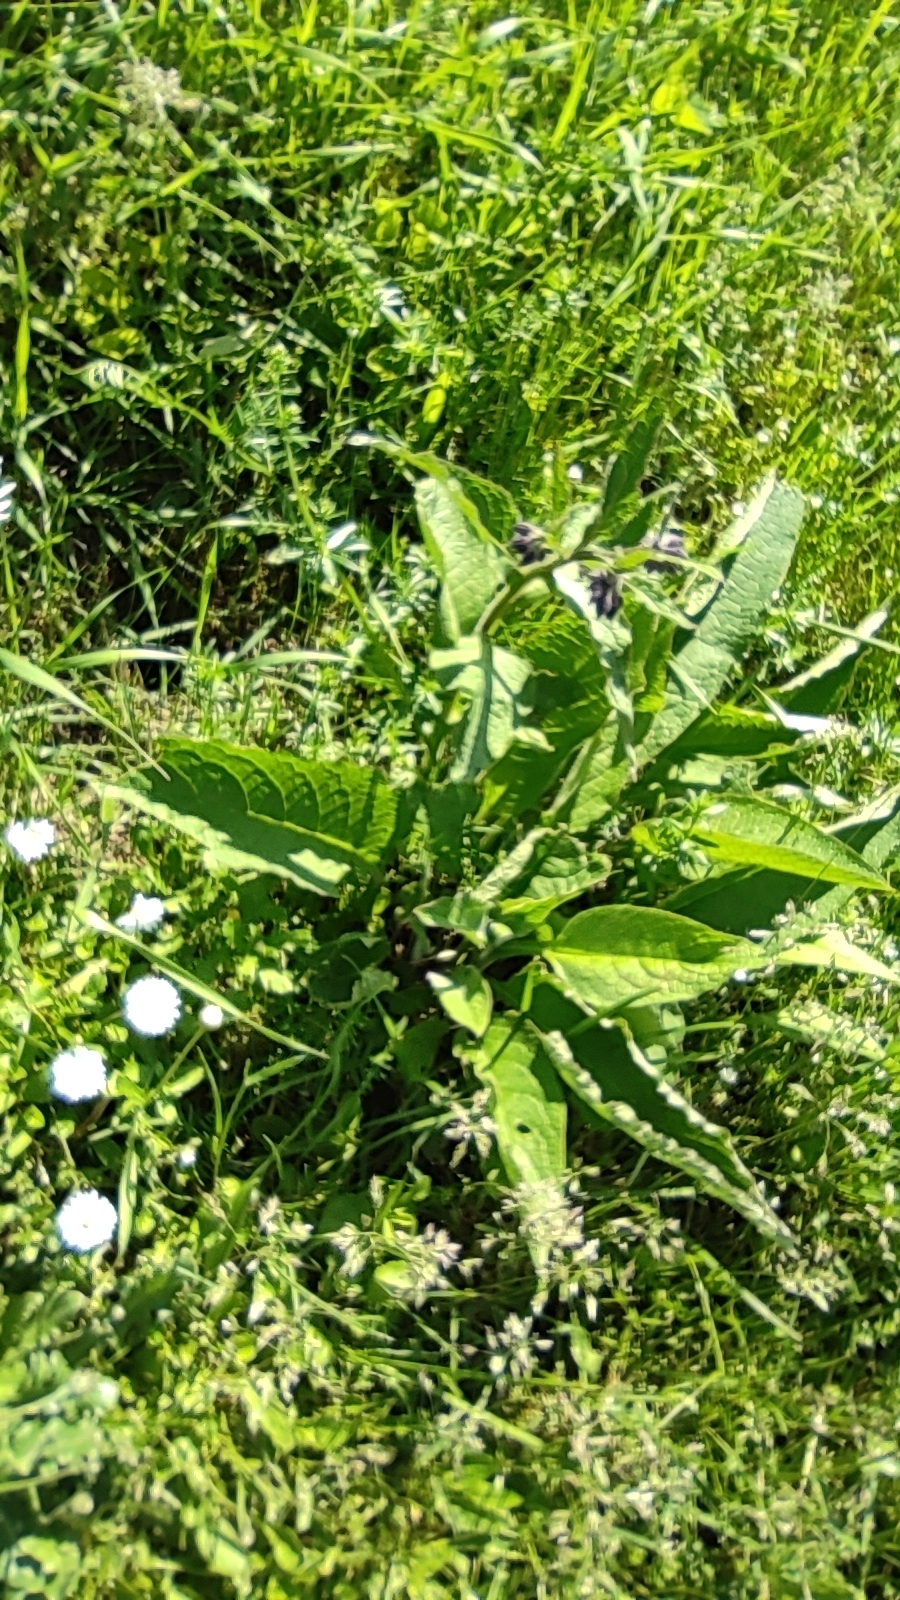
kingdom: Plantae
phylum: Tracheophyta
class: Magnoliopsida
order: Boraginales
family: Boraginaceae
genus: Symphytum
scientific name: Symphytum officinale
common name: Common comfrey
